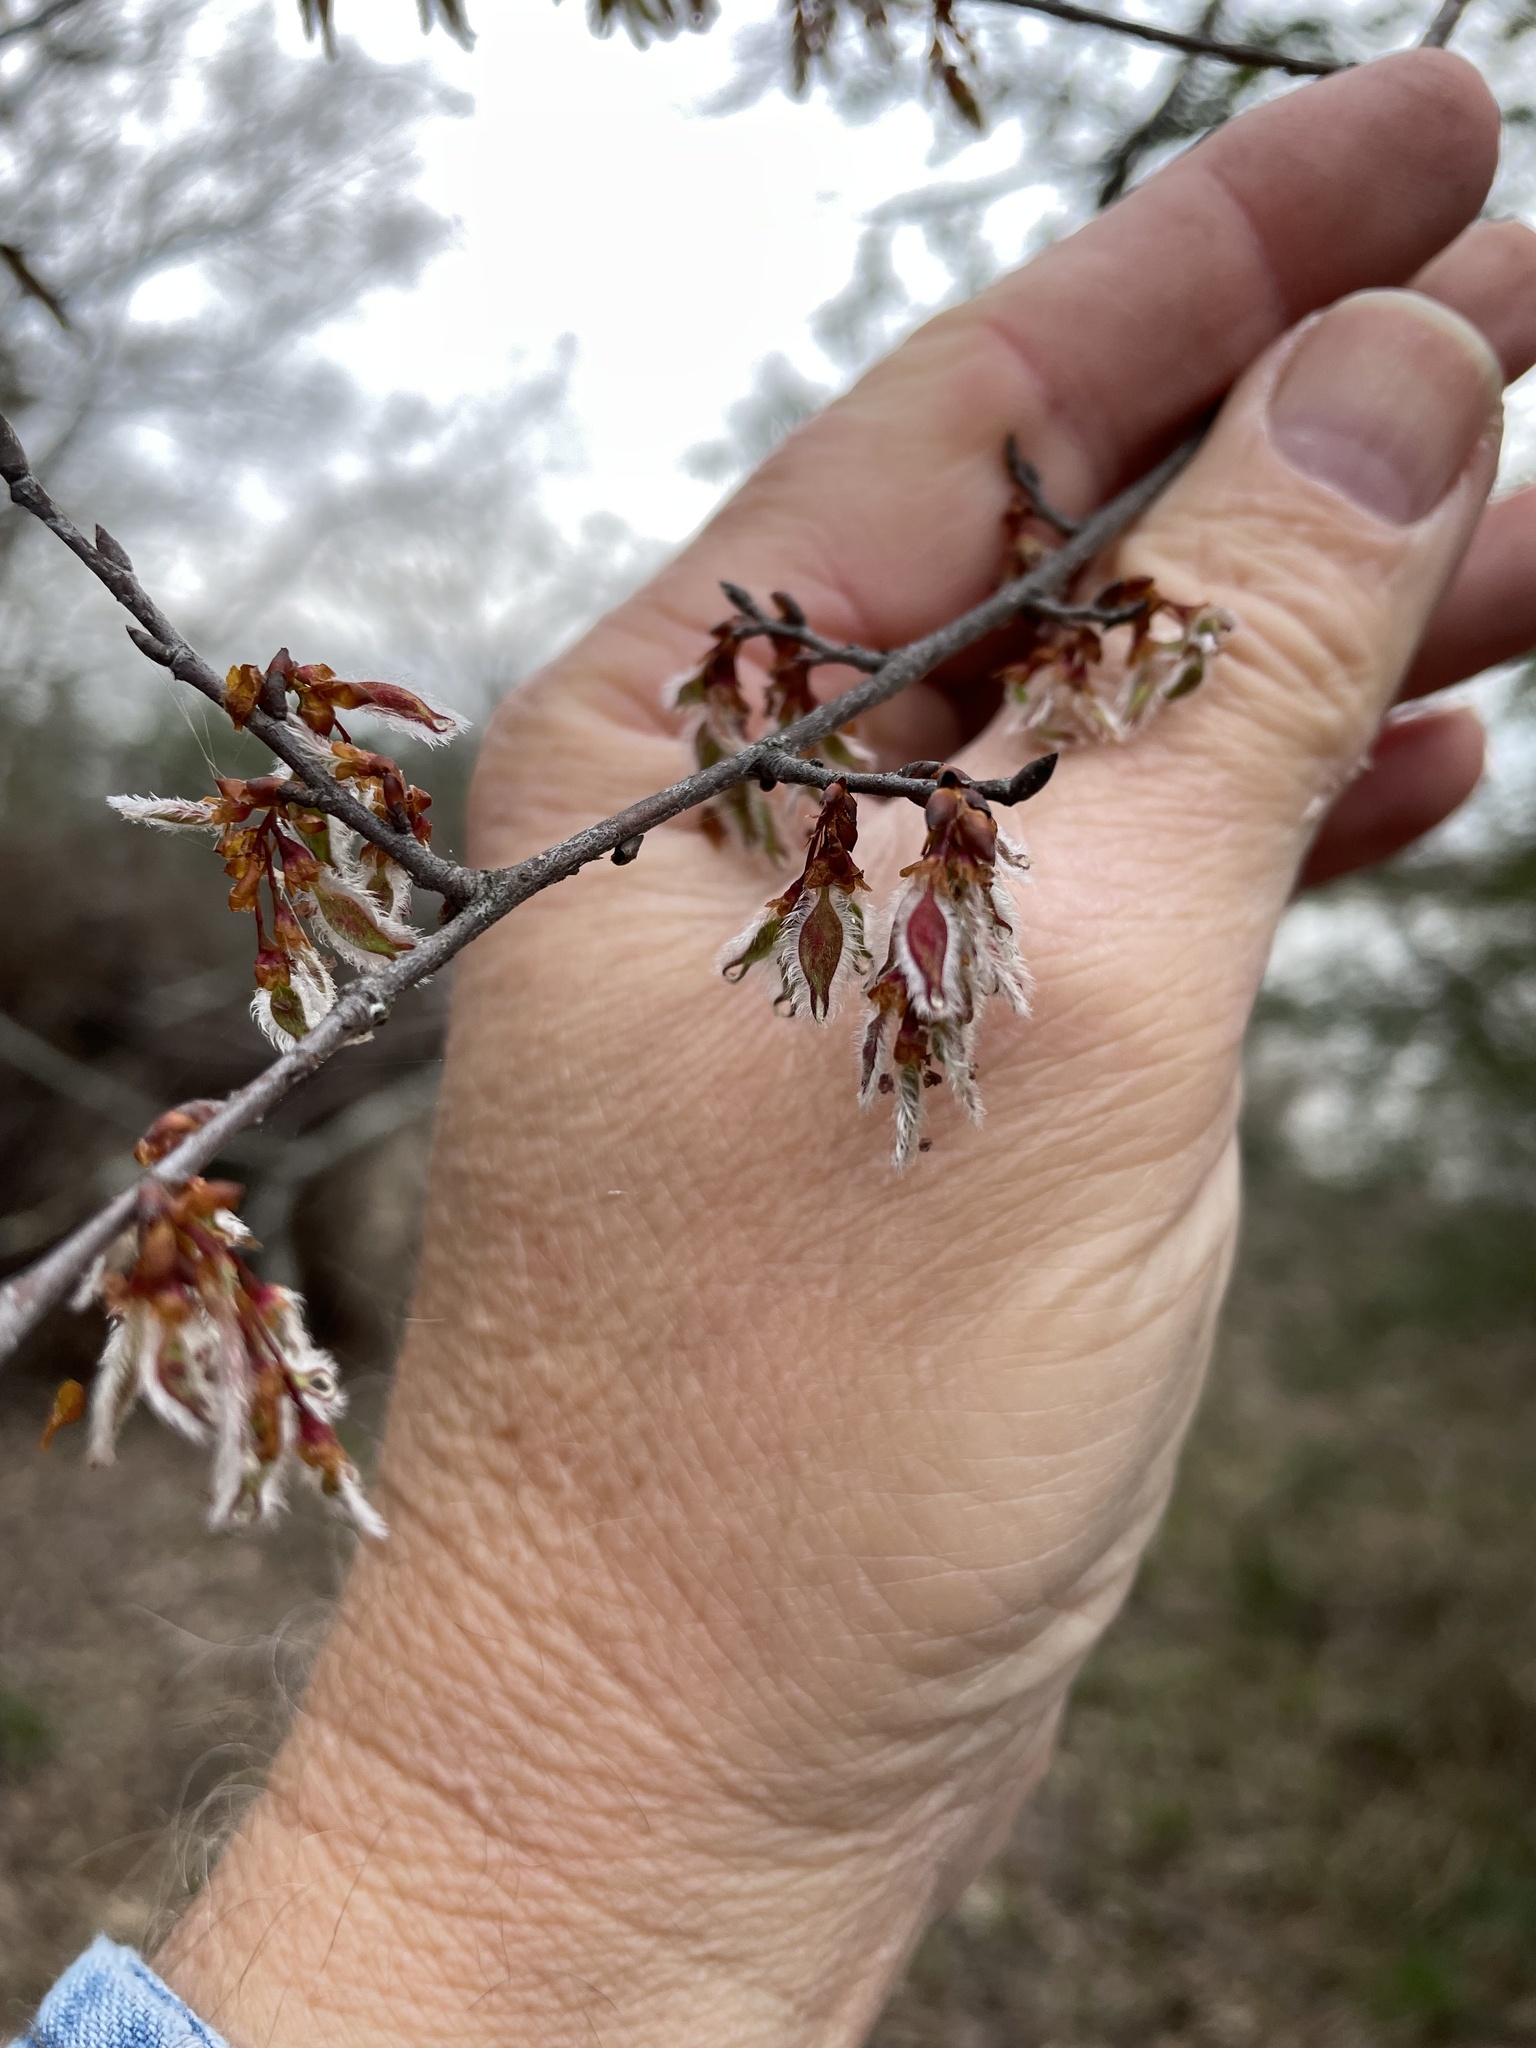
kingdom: Plantae
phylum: Tracheophyta
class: Magnoliopsida
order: Rosales
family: Ulmaceae
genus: Ulmus
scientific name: Ulmus alata
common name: Winged elm
